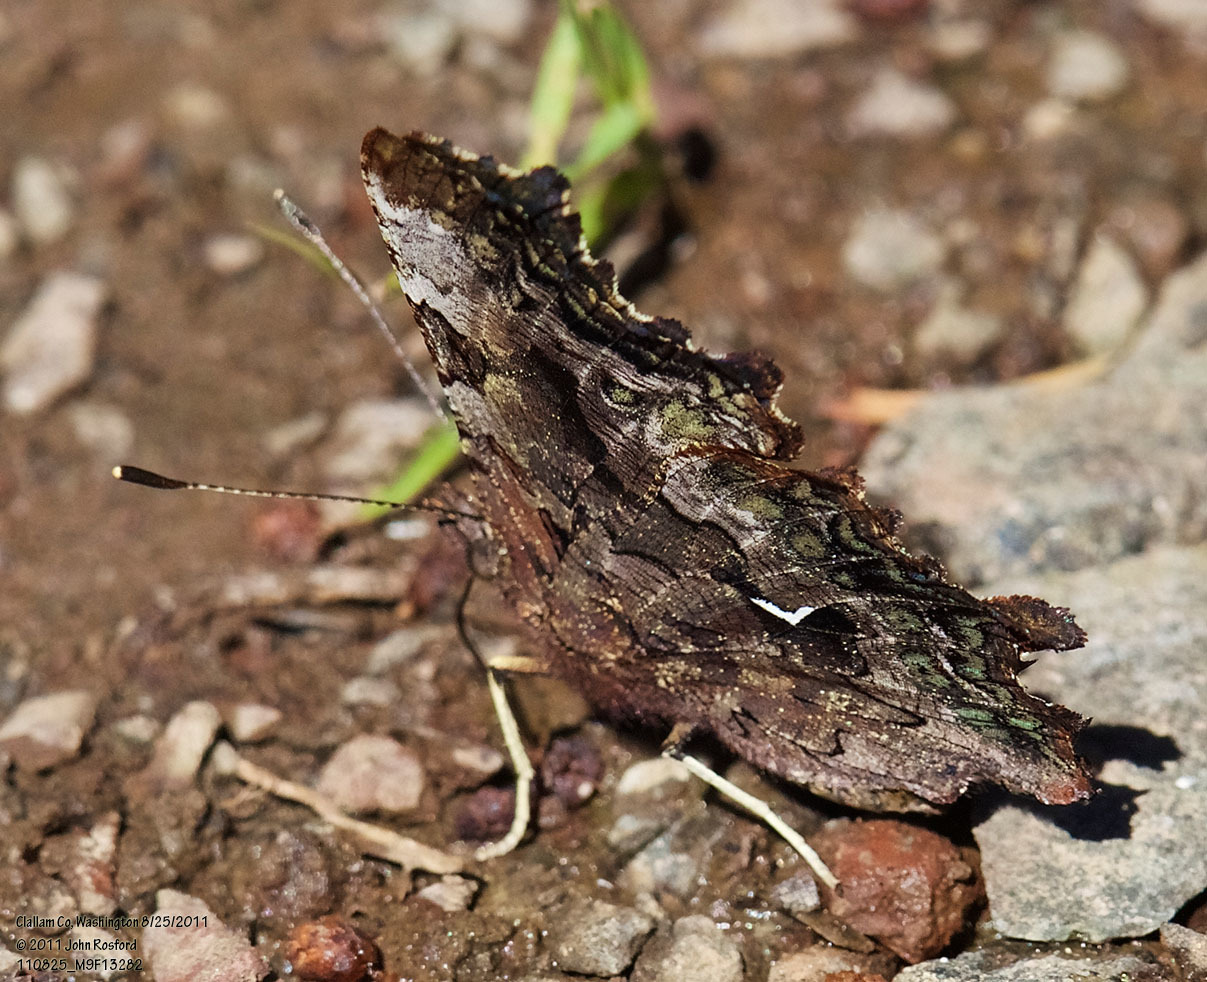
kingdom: Animalia
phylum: Arthropoda
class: Insecta
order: Lepidoptera
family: Nymphalidae
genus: Polygonia
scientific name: Polygonia faunus
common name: Green comma
